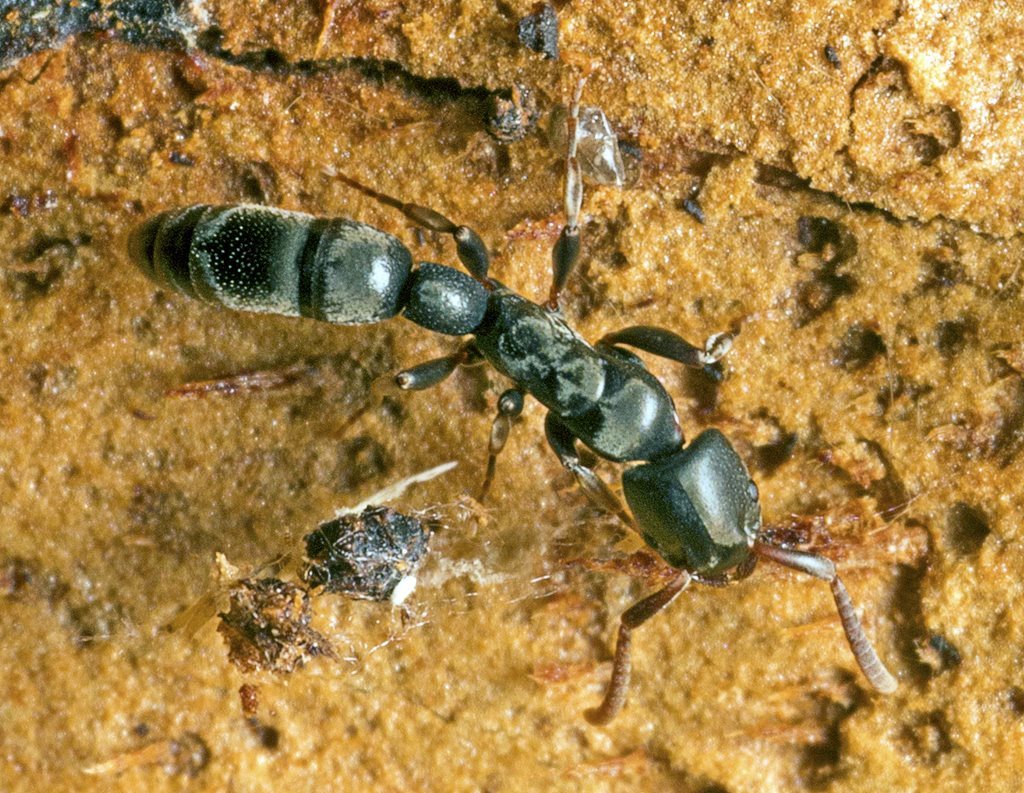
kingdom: Animalia
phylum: Arthropoda
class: Insecta
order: Hymenoptera
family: Formicidae
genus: Platythyrea
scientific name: Platythyrea parallela
